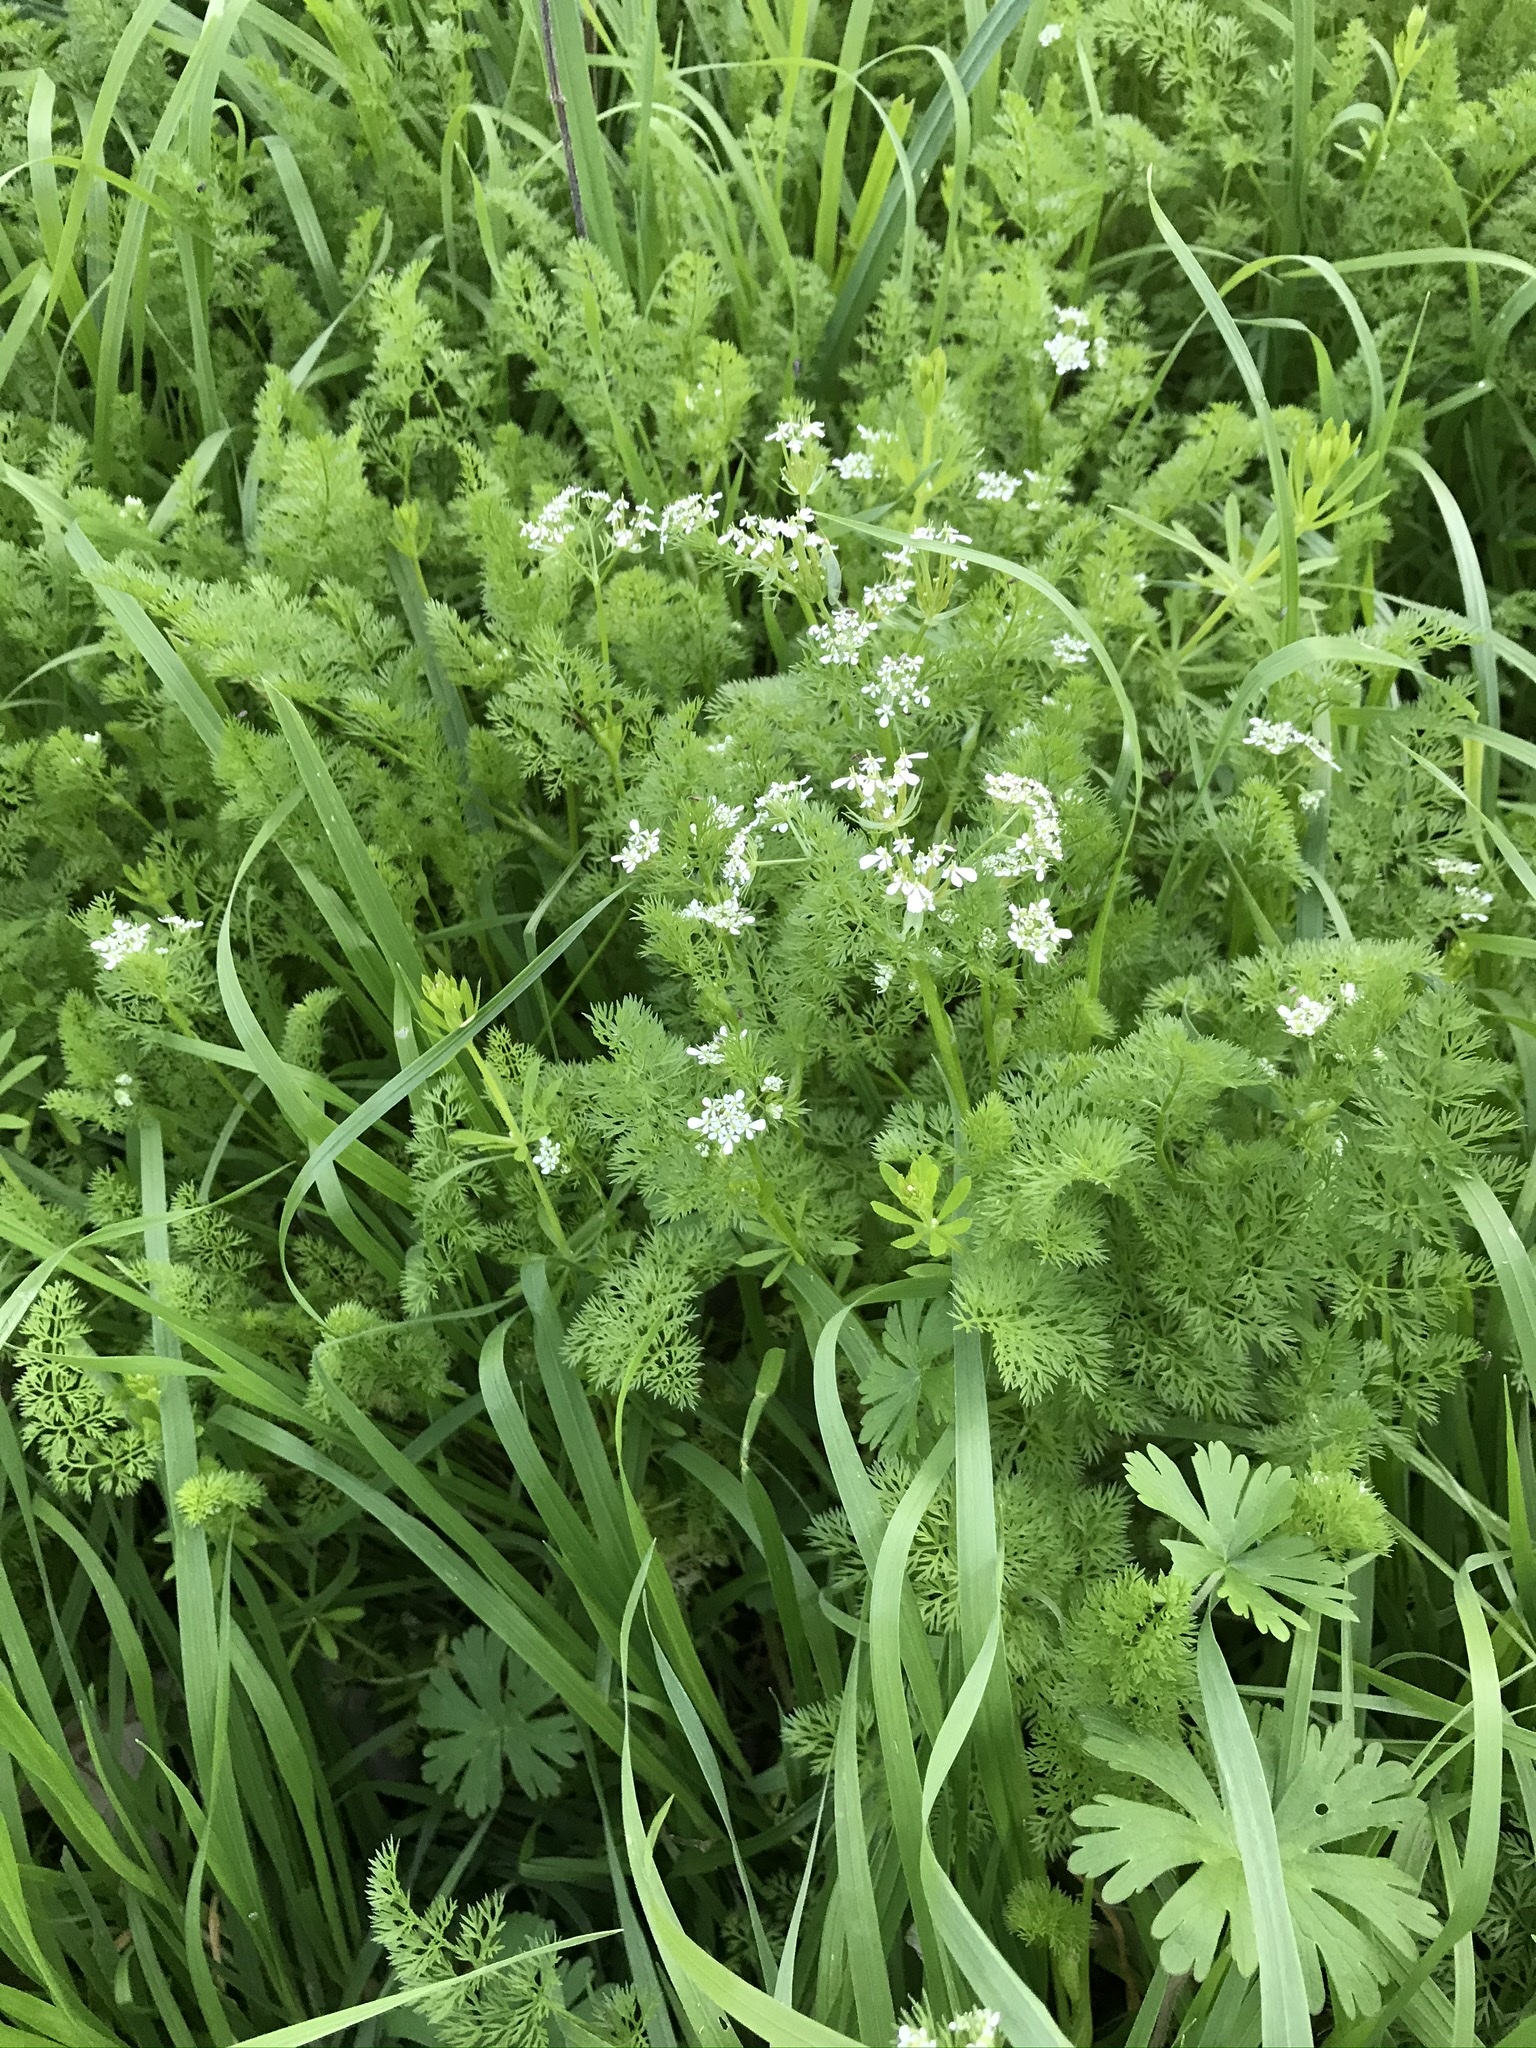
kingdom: Plantae
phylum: Tracheophyta
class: Magnoliopsida
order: Apiales
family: Apiaceae
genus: Scandix
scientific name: Scandix pecten-veneris
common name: Shepherd's-needle
